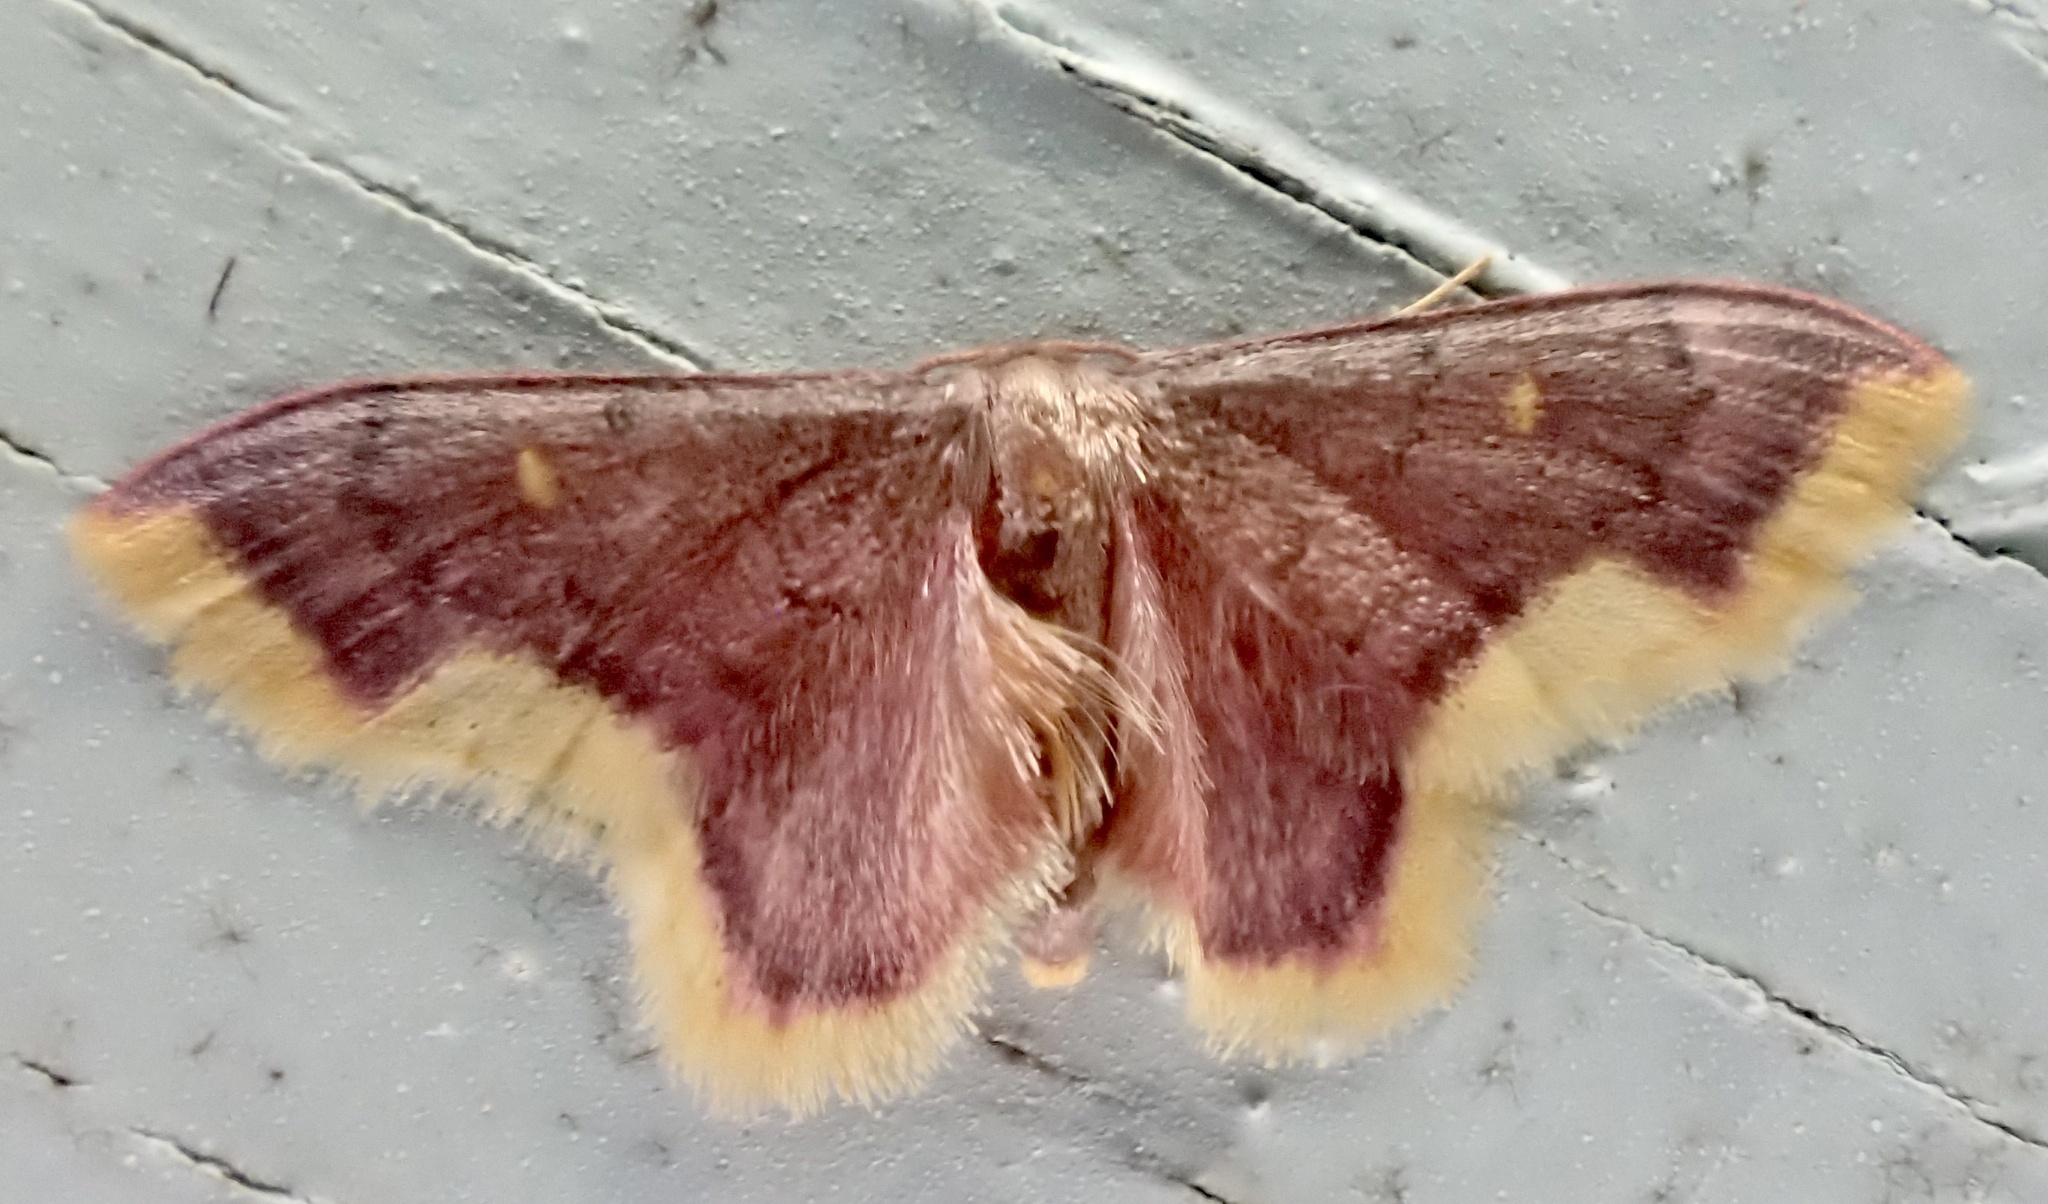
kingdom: Animalia
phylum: Arthropoda
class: Insecta
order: Lepidoptera
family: Geometridae
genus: Lophosis
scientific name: Lophosis labeculata
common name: Stained lophosis moth
